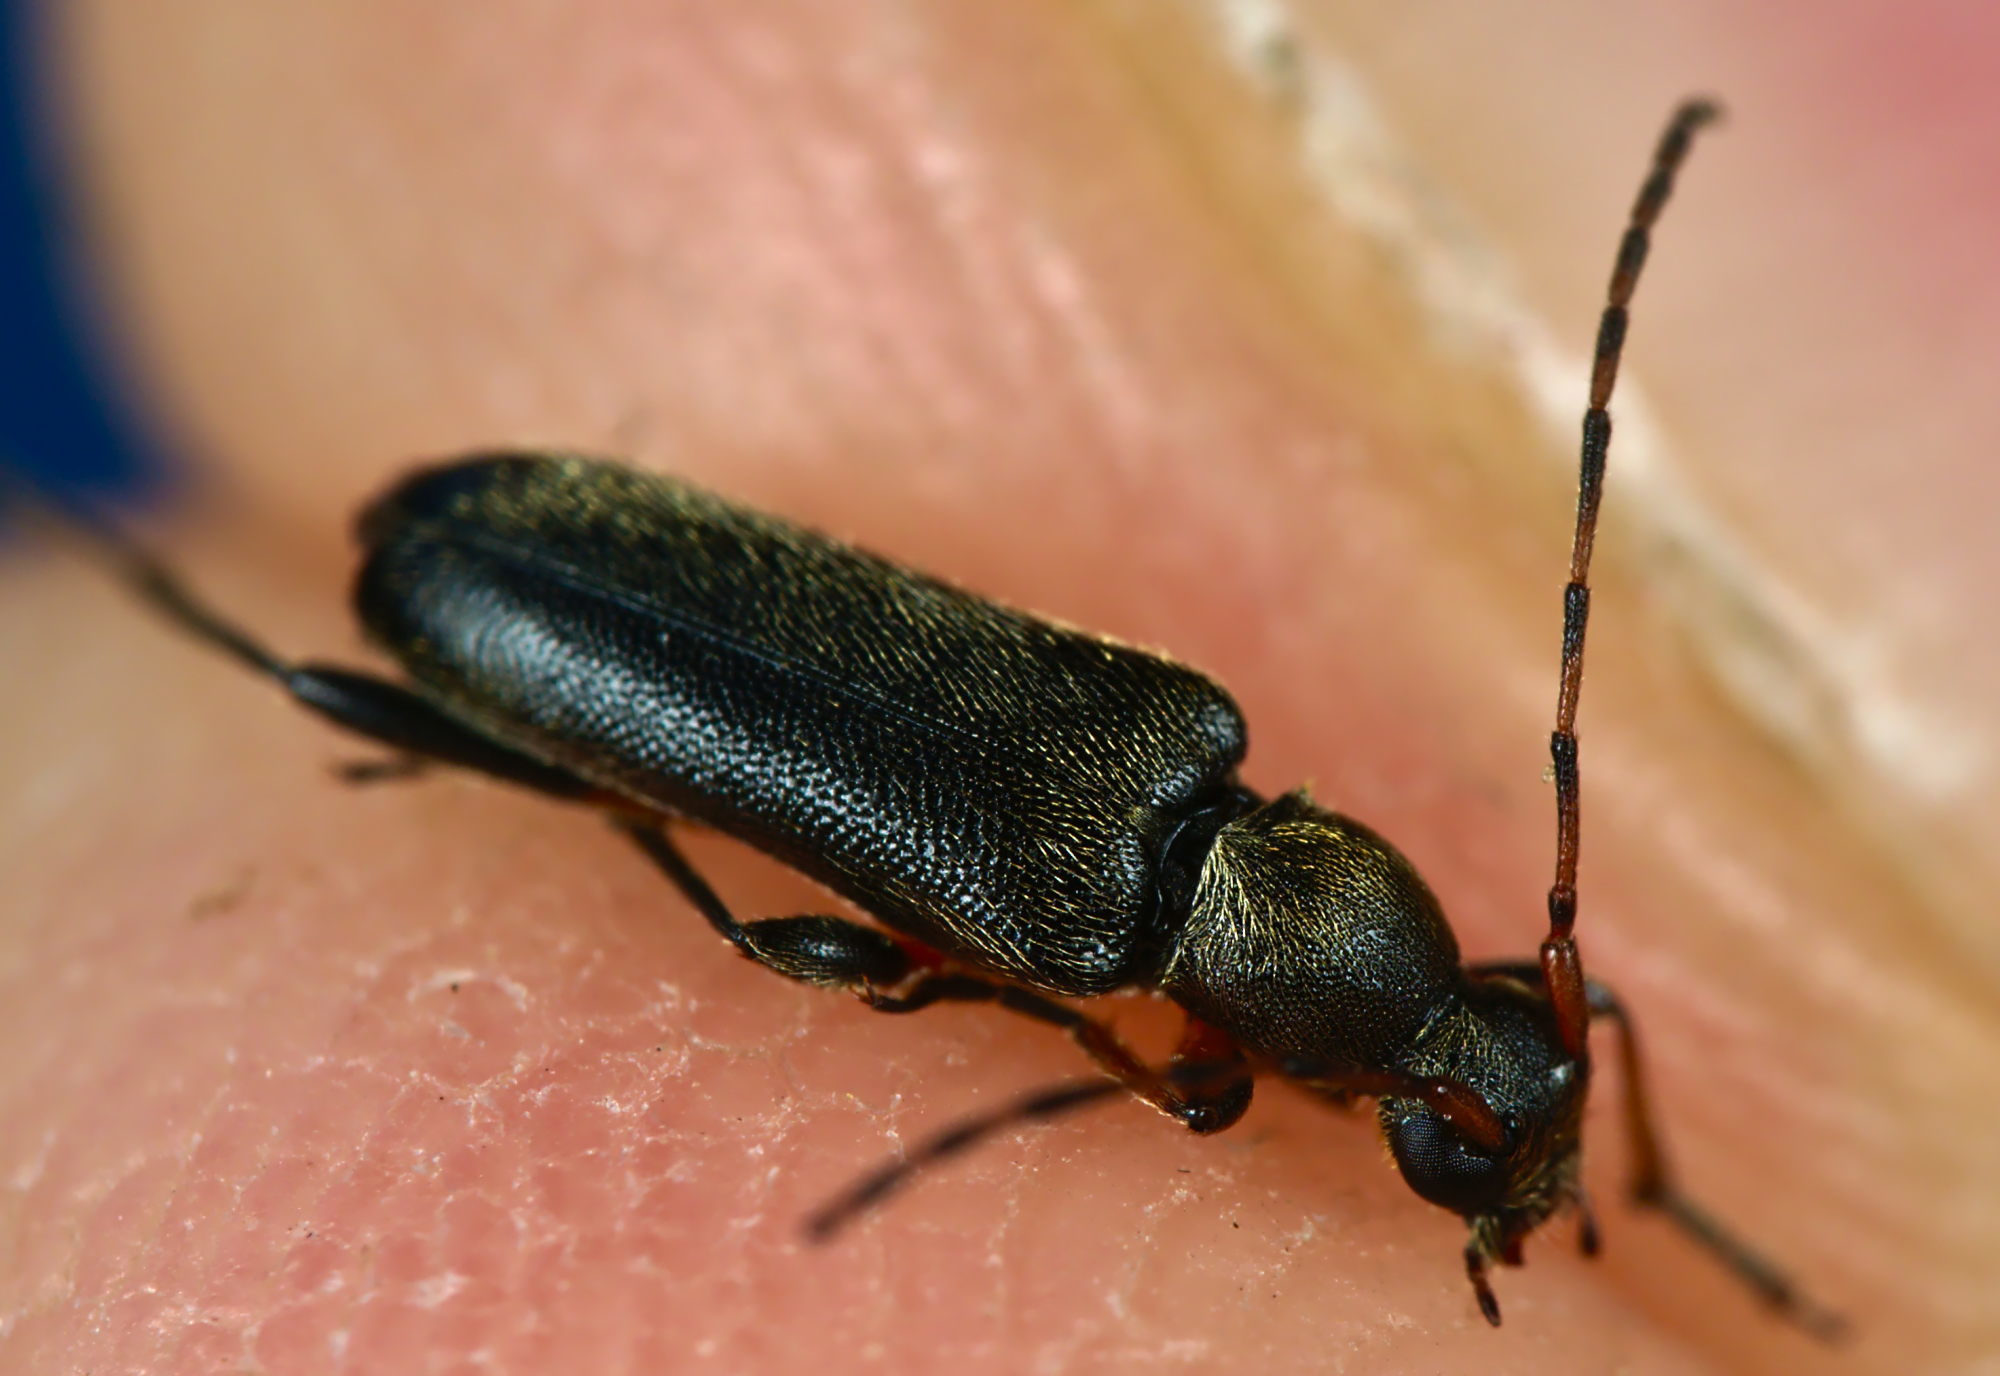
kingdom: Animalia
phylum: Arthropoda
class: Insecta
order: Coleoptera
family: Cerambycidae
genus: Grammoptera
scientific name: Grammoptera ruficornis
